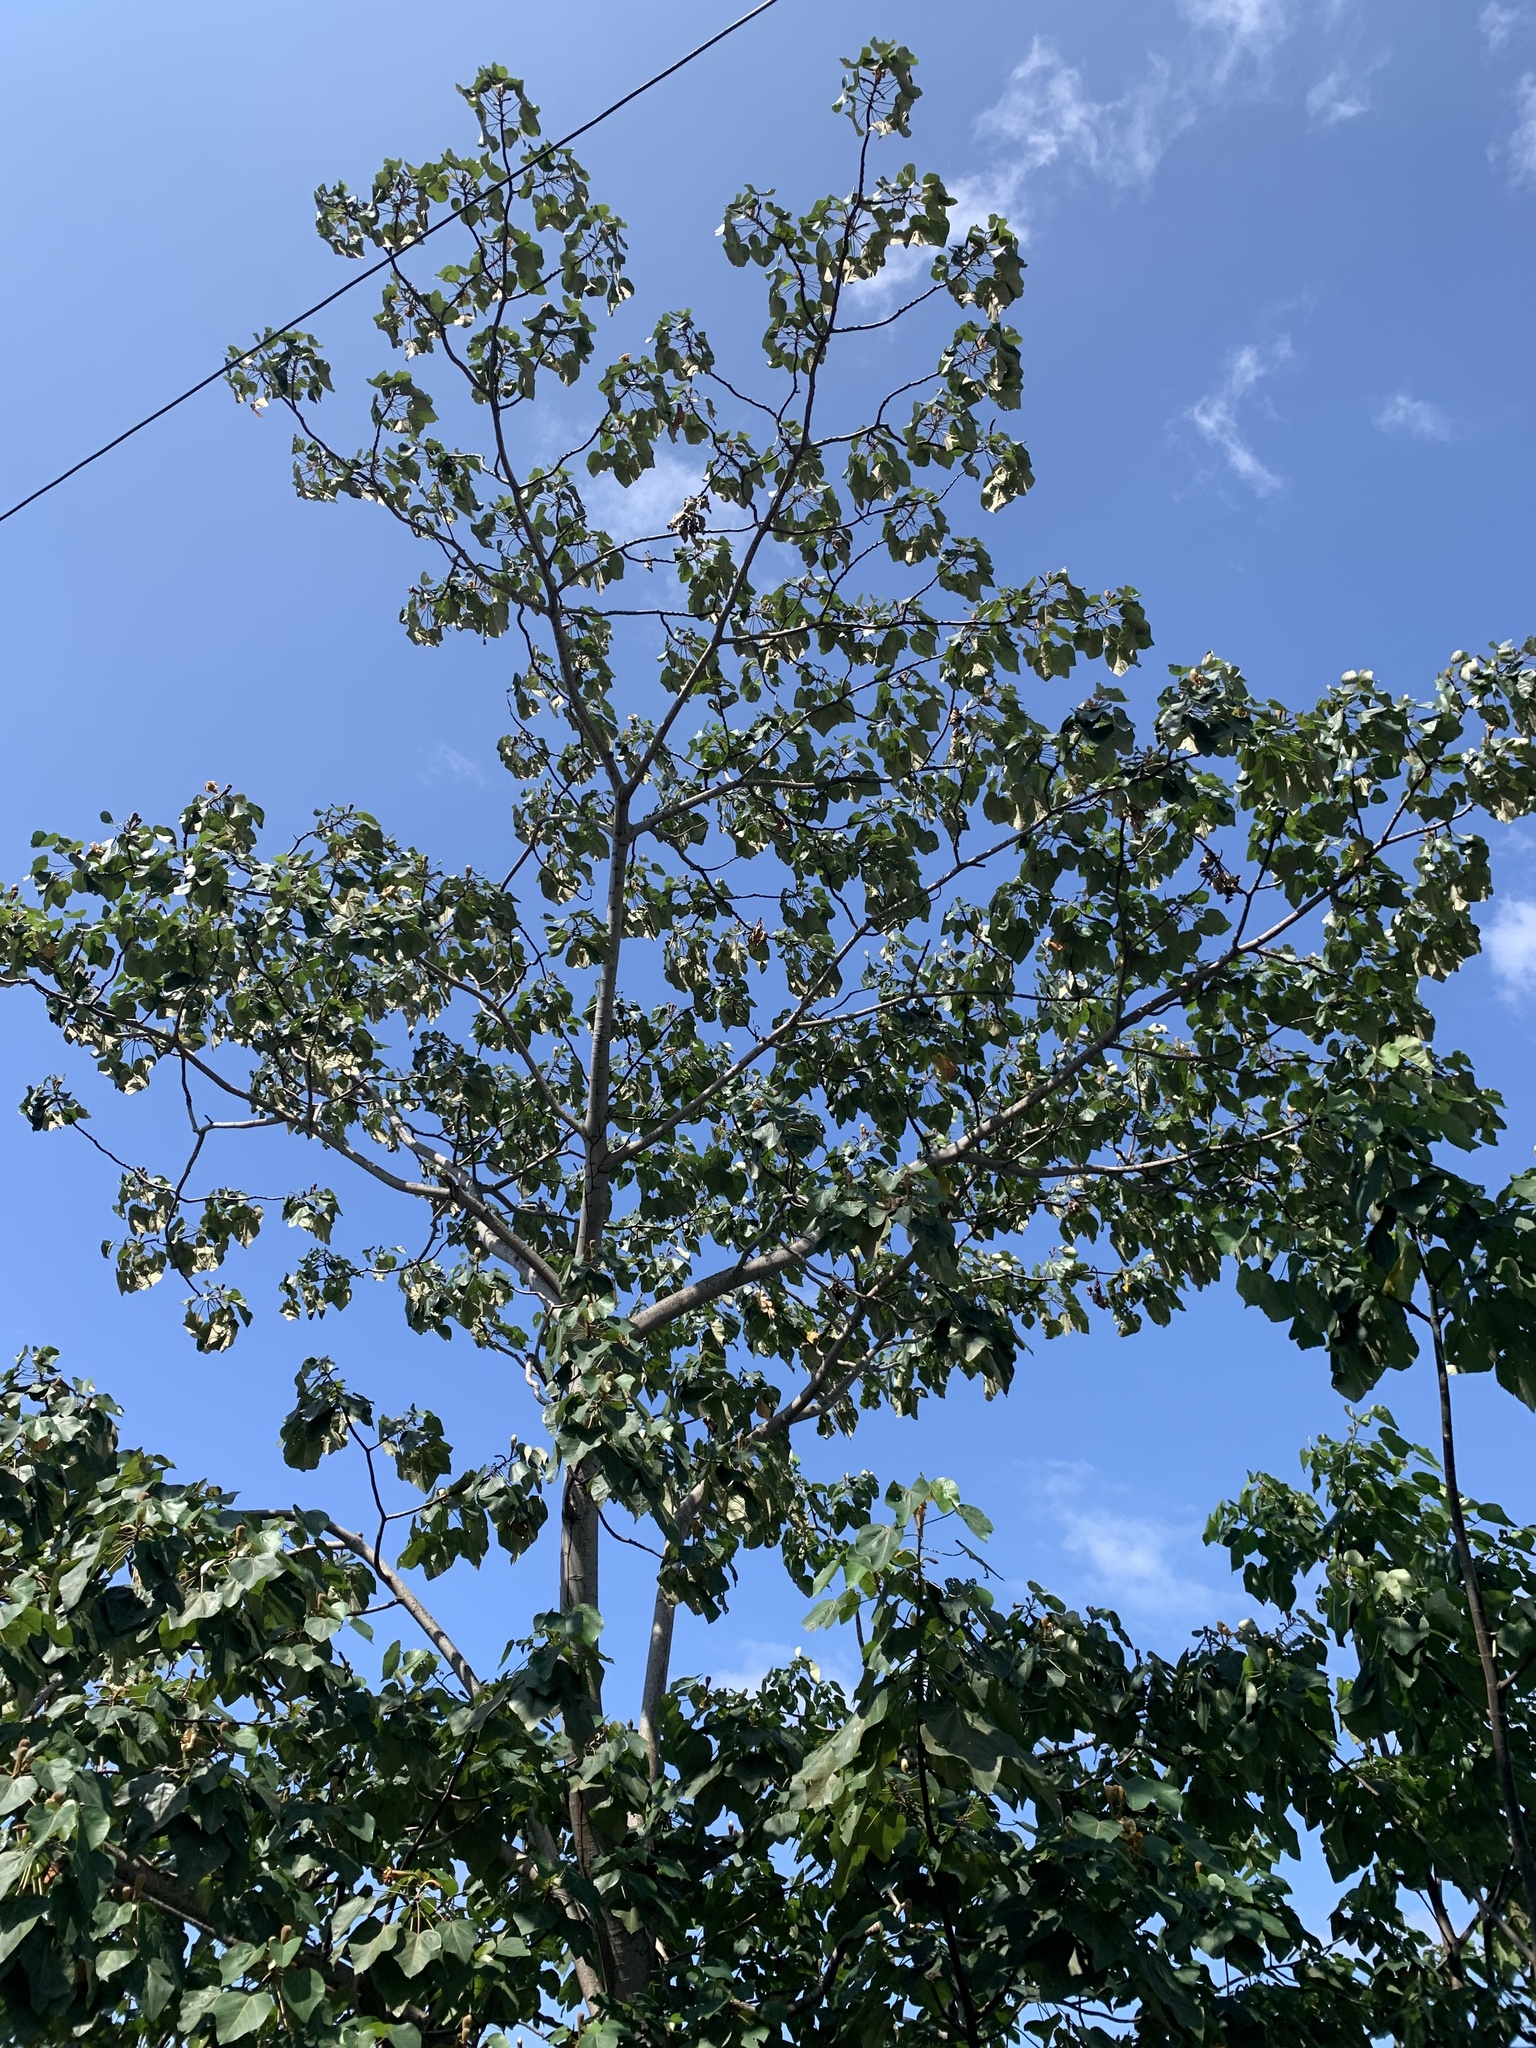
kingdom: Plantae
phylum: Tracheophyta
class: Magnoliopsida
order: Malvales
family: Malvaceae
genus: Ochroma
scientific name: Ochroma pyramidale
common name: Balsa
